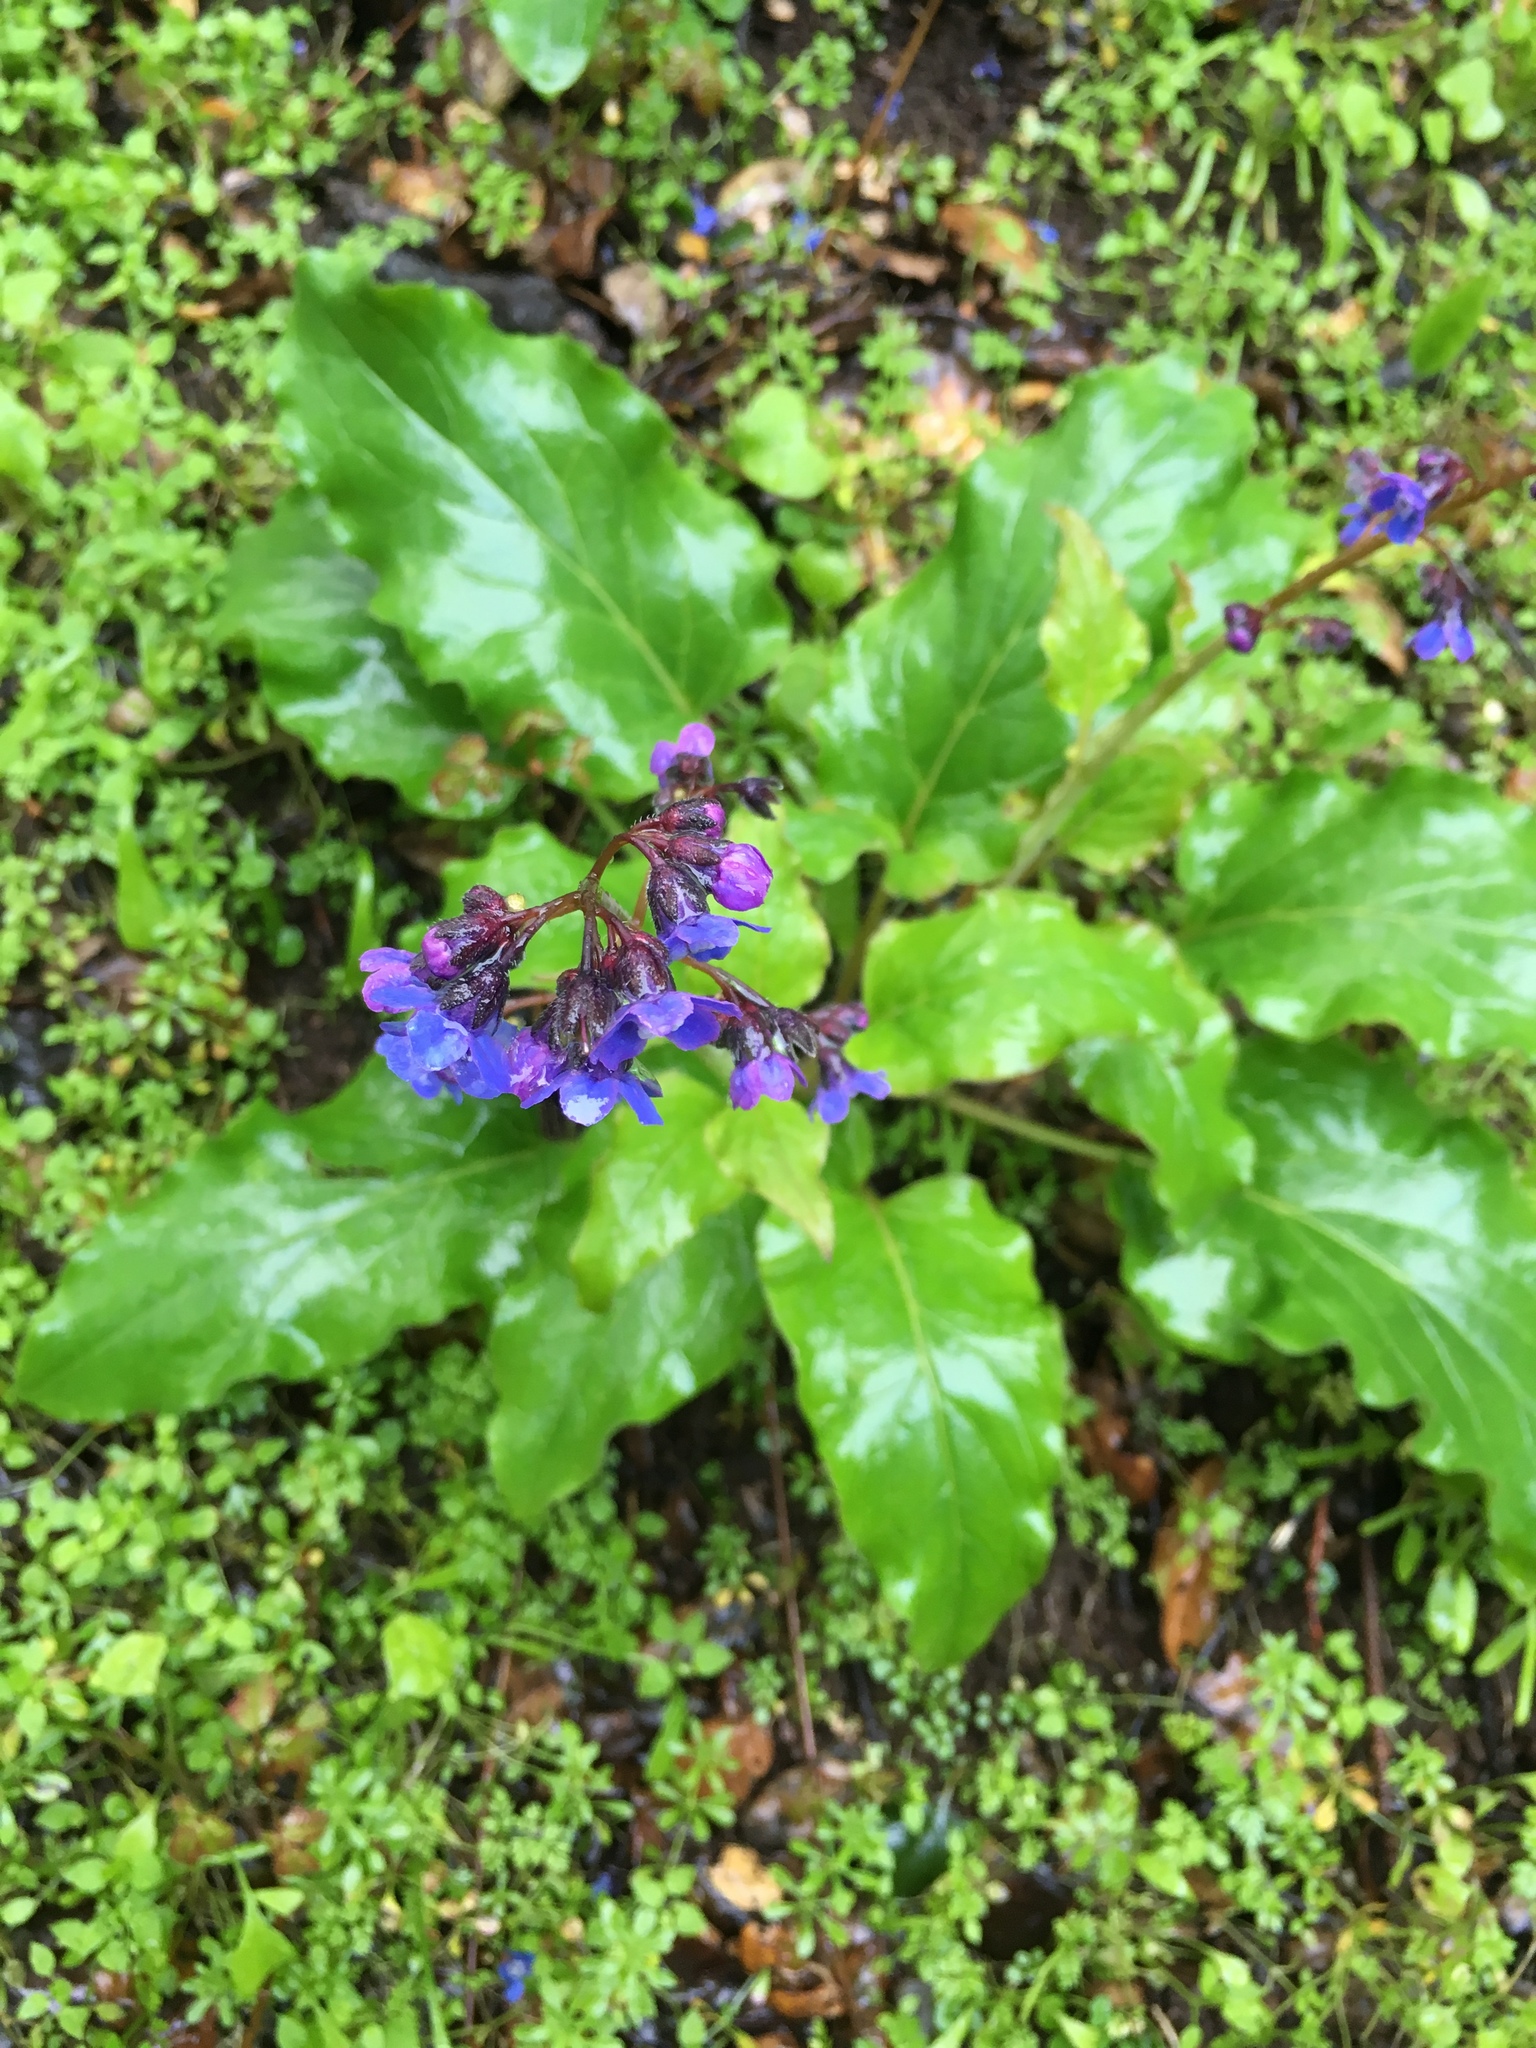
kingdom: Plantae
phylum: Tracheophyta
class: Magnoliopsida
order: Boraginales
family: Boraginaceae
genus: Adelinia
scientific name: Adelinia grande
